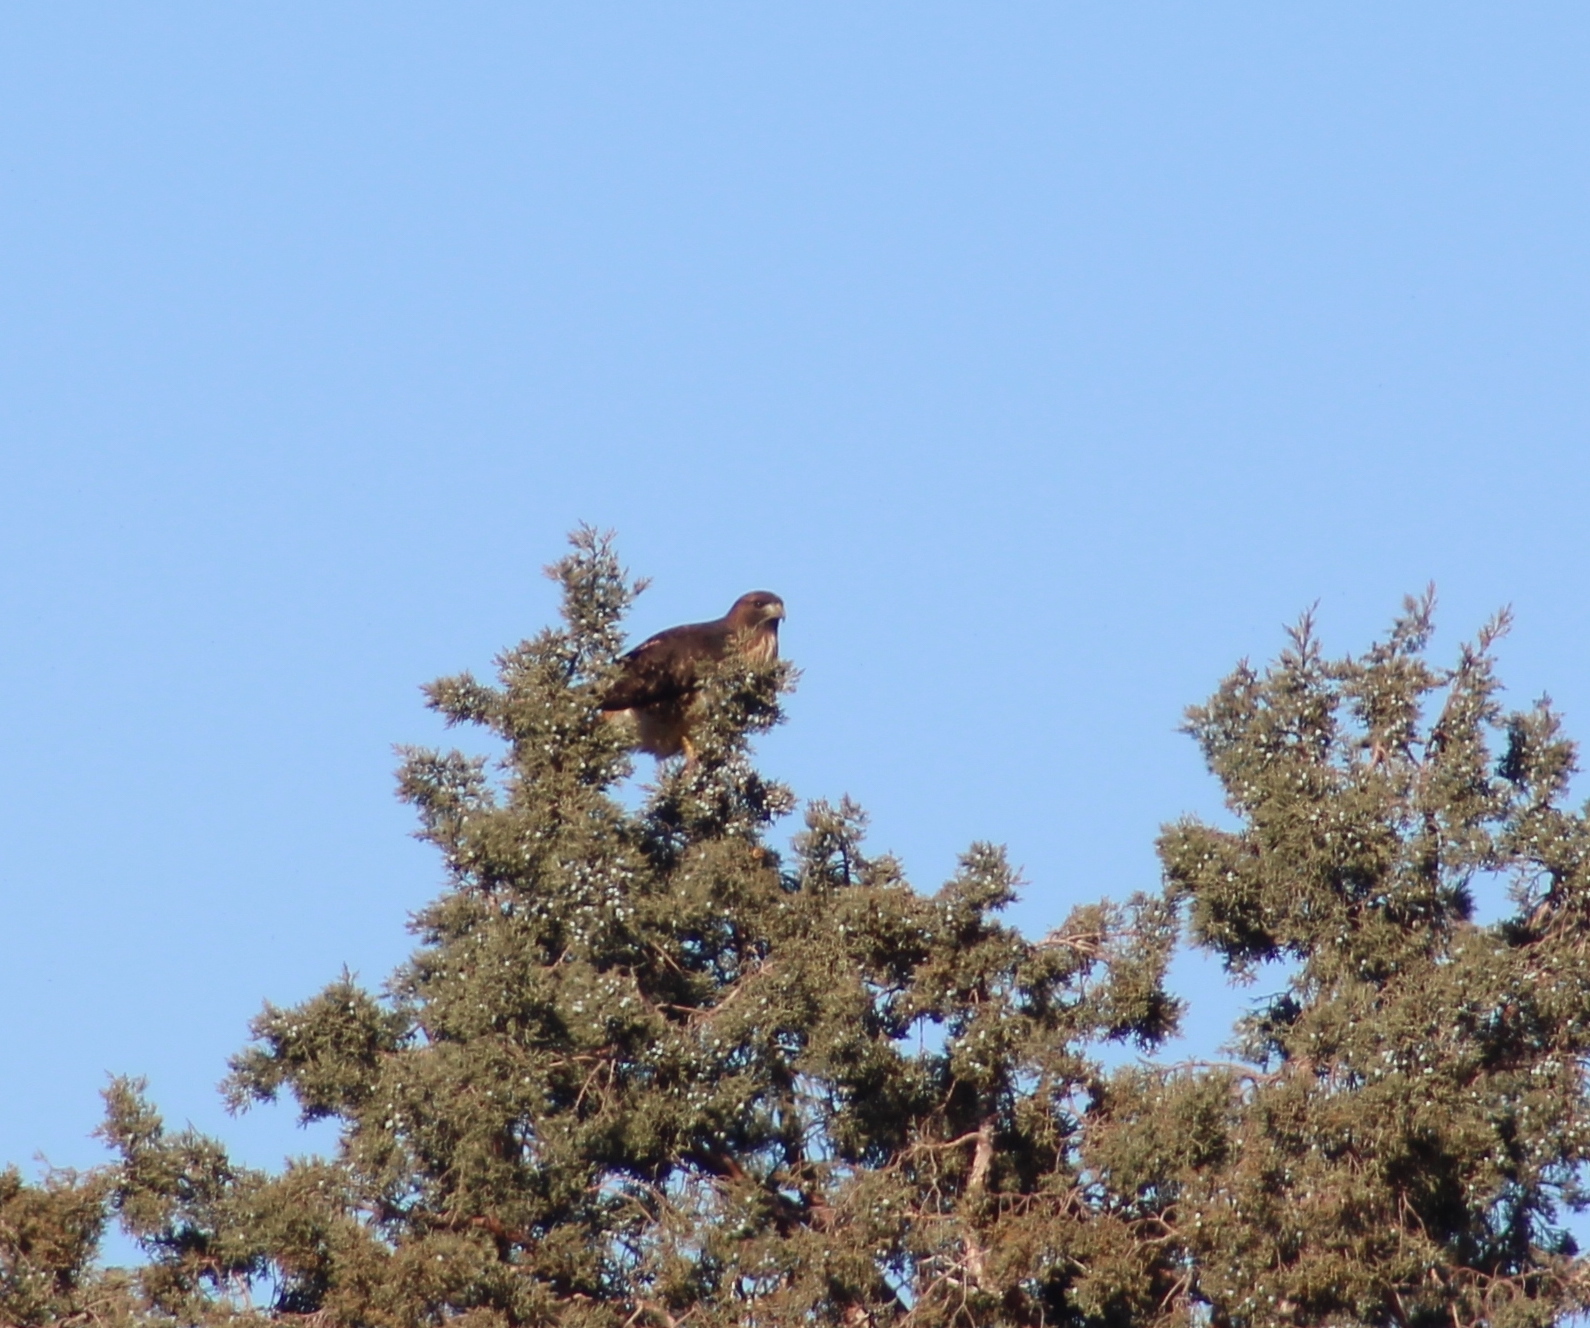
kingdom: Animalia
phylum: Chordata
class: Aves
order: Accipitriformes
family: Accipitridae
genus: Buteo
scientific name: Buteo jamaicensis
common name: Red-tailed hawk
